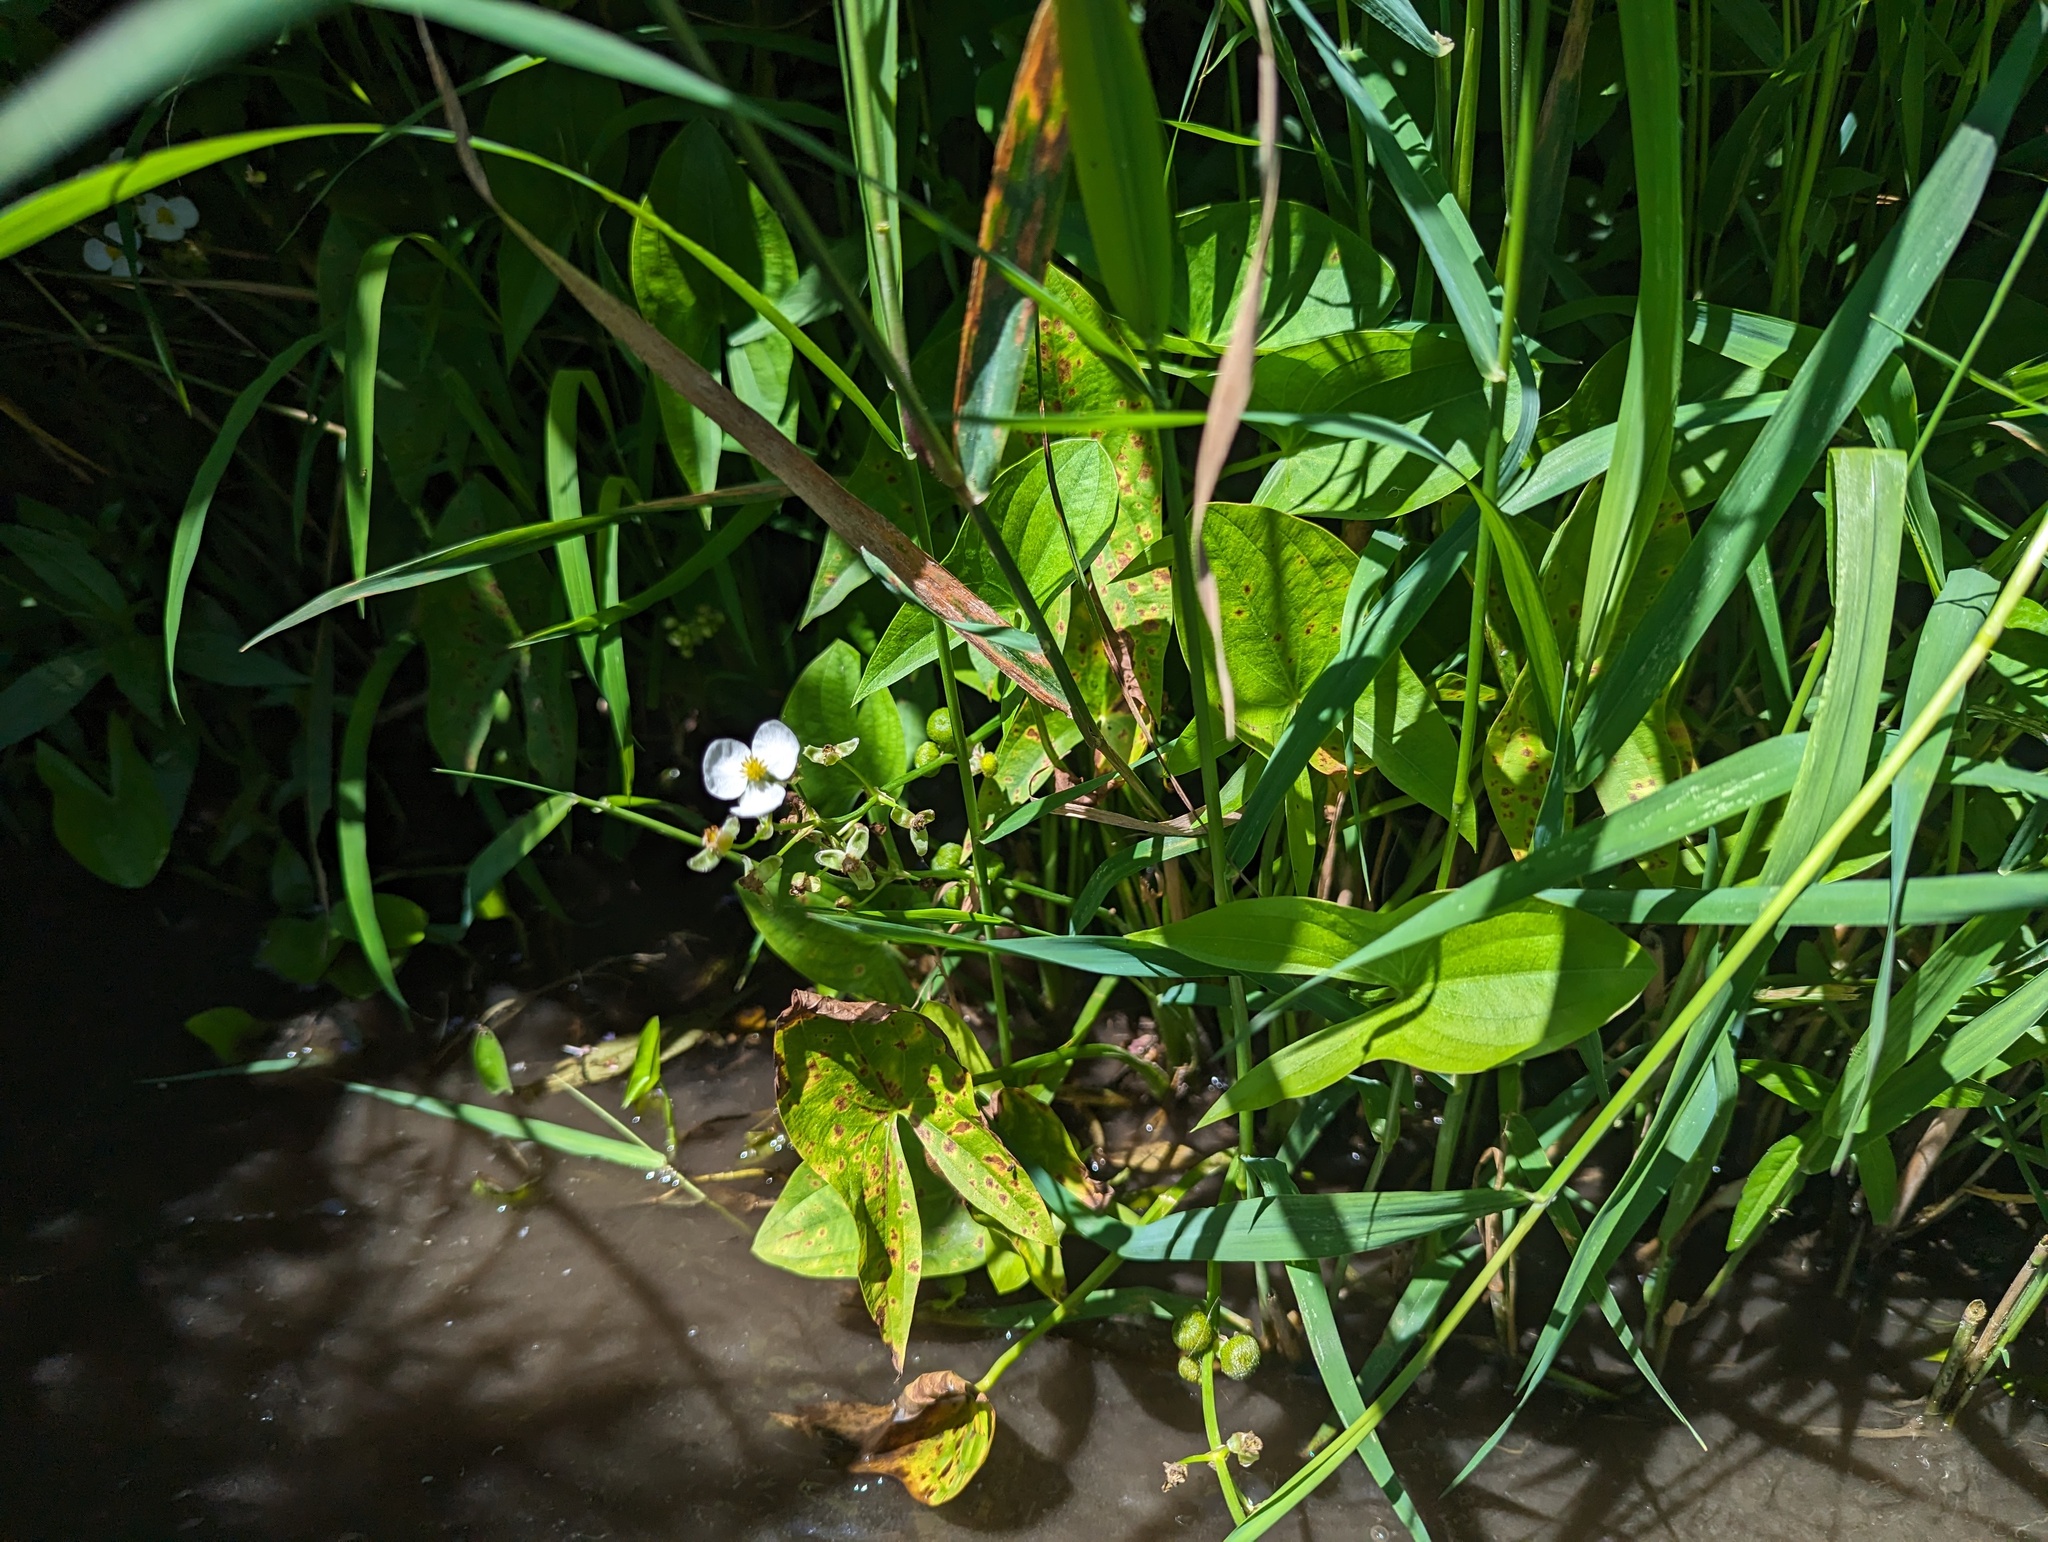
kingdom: Plantae
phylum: Tracheophyta
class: Liliopsida
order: Alismatales
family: Alismataceae
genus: Sagittaria
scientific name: Sagittaria latifolia
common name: Duck-potato
